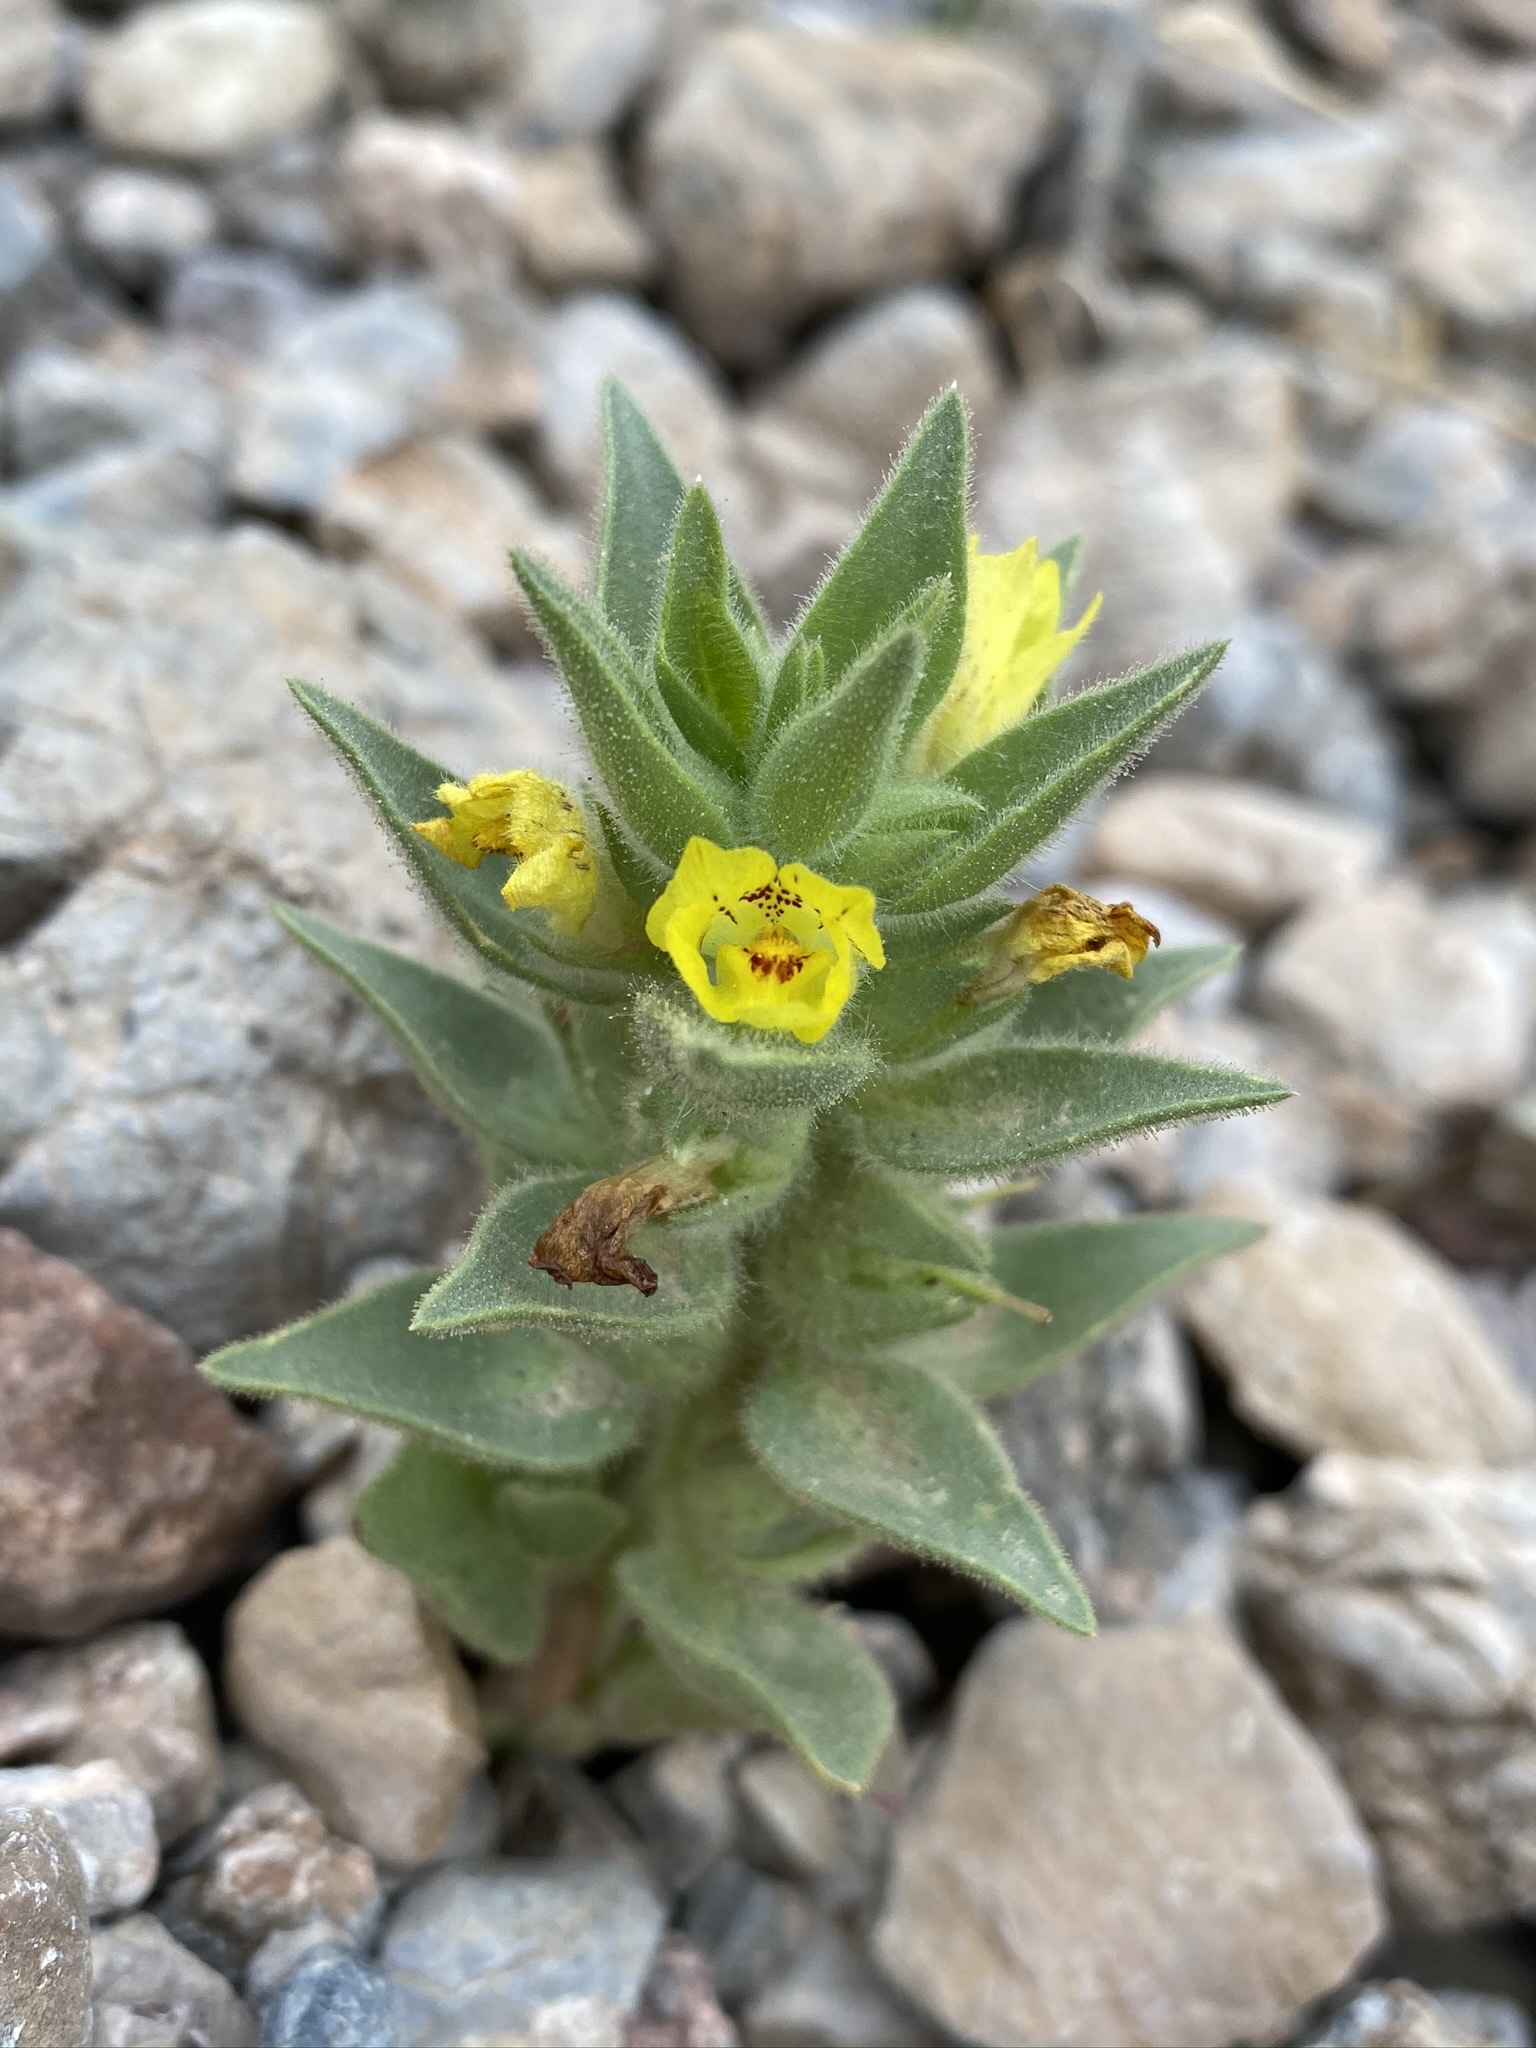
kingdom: Plantae
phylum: Tracheophyta
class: Magnoliopsida
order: Lamiales
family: Plantaginaceae
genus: Mohavea
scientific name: Mohavea breviflora
